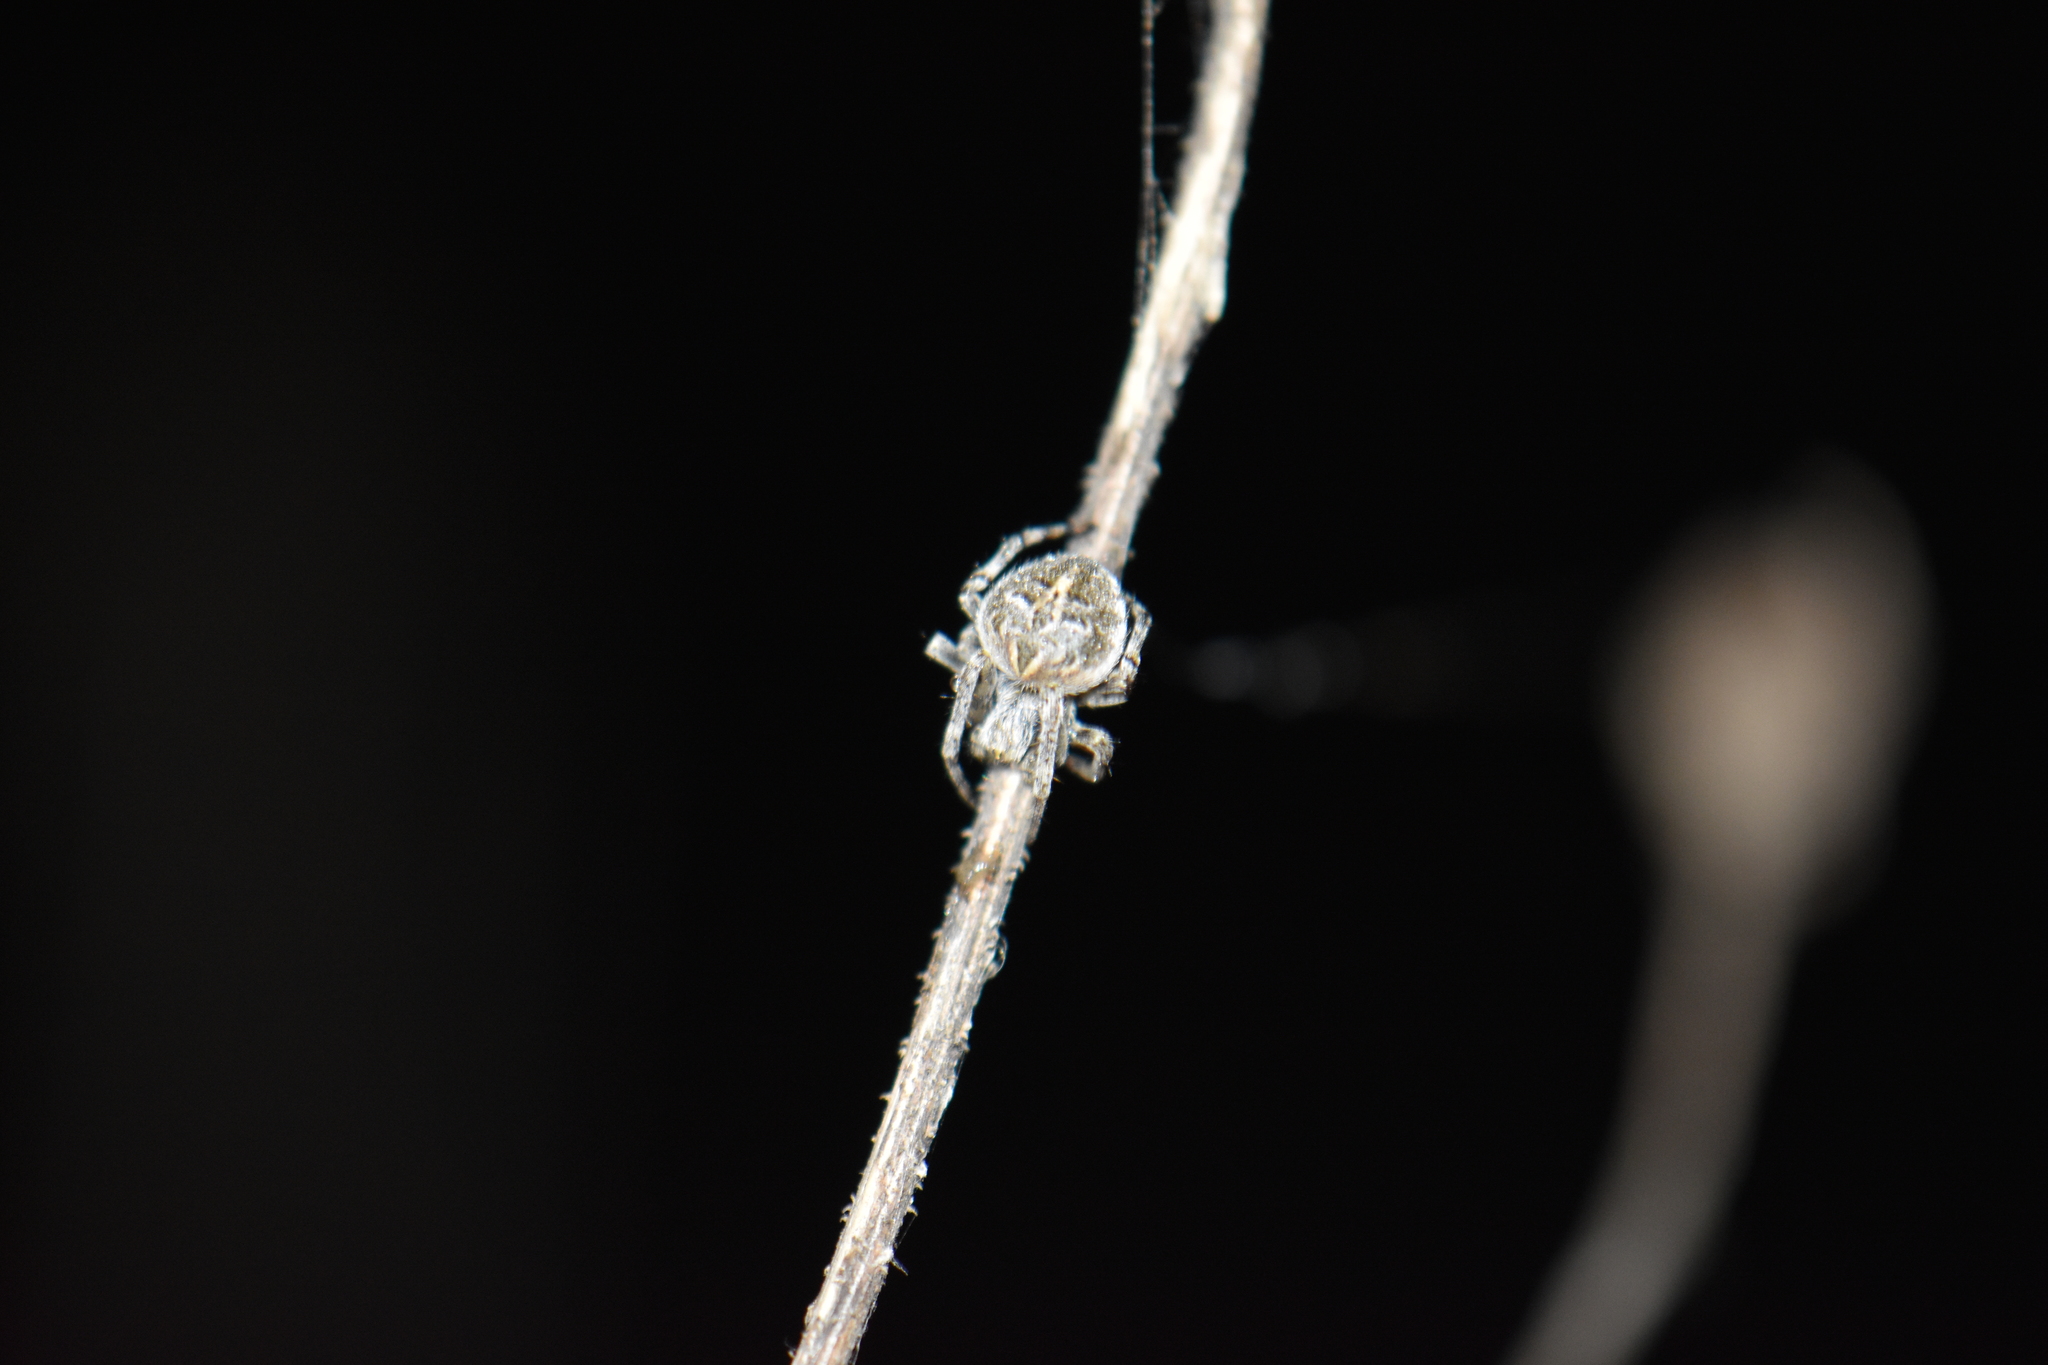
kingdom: Animalia
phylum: Arthropoda
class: Arachnida
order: Araneae
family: Araneidae
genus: Agalenatea
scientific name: Agalenatea redii
